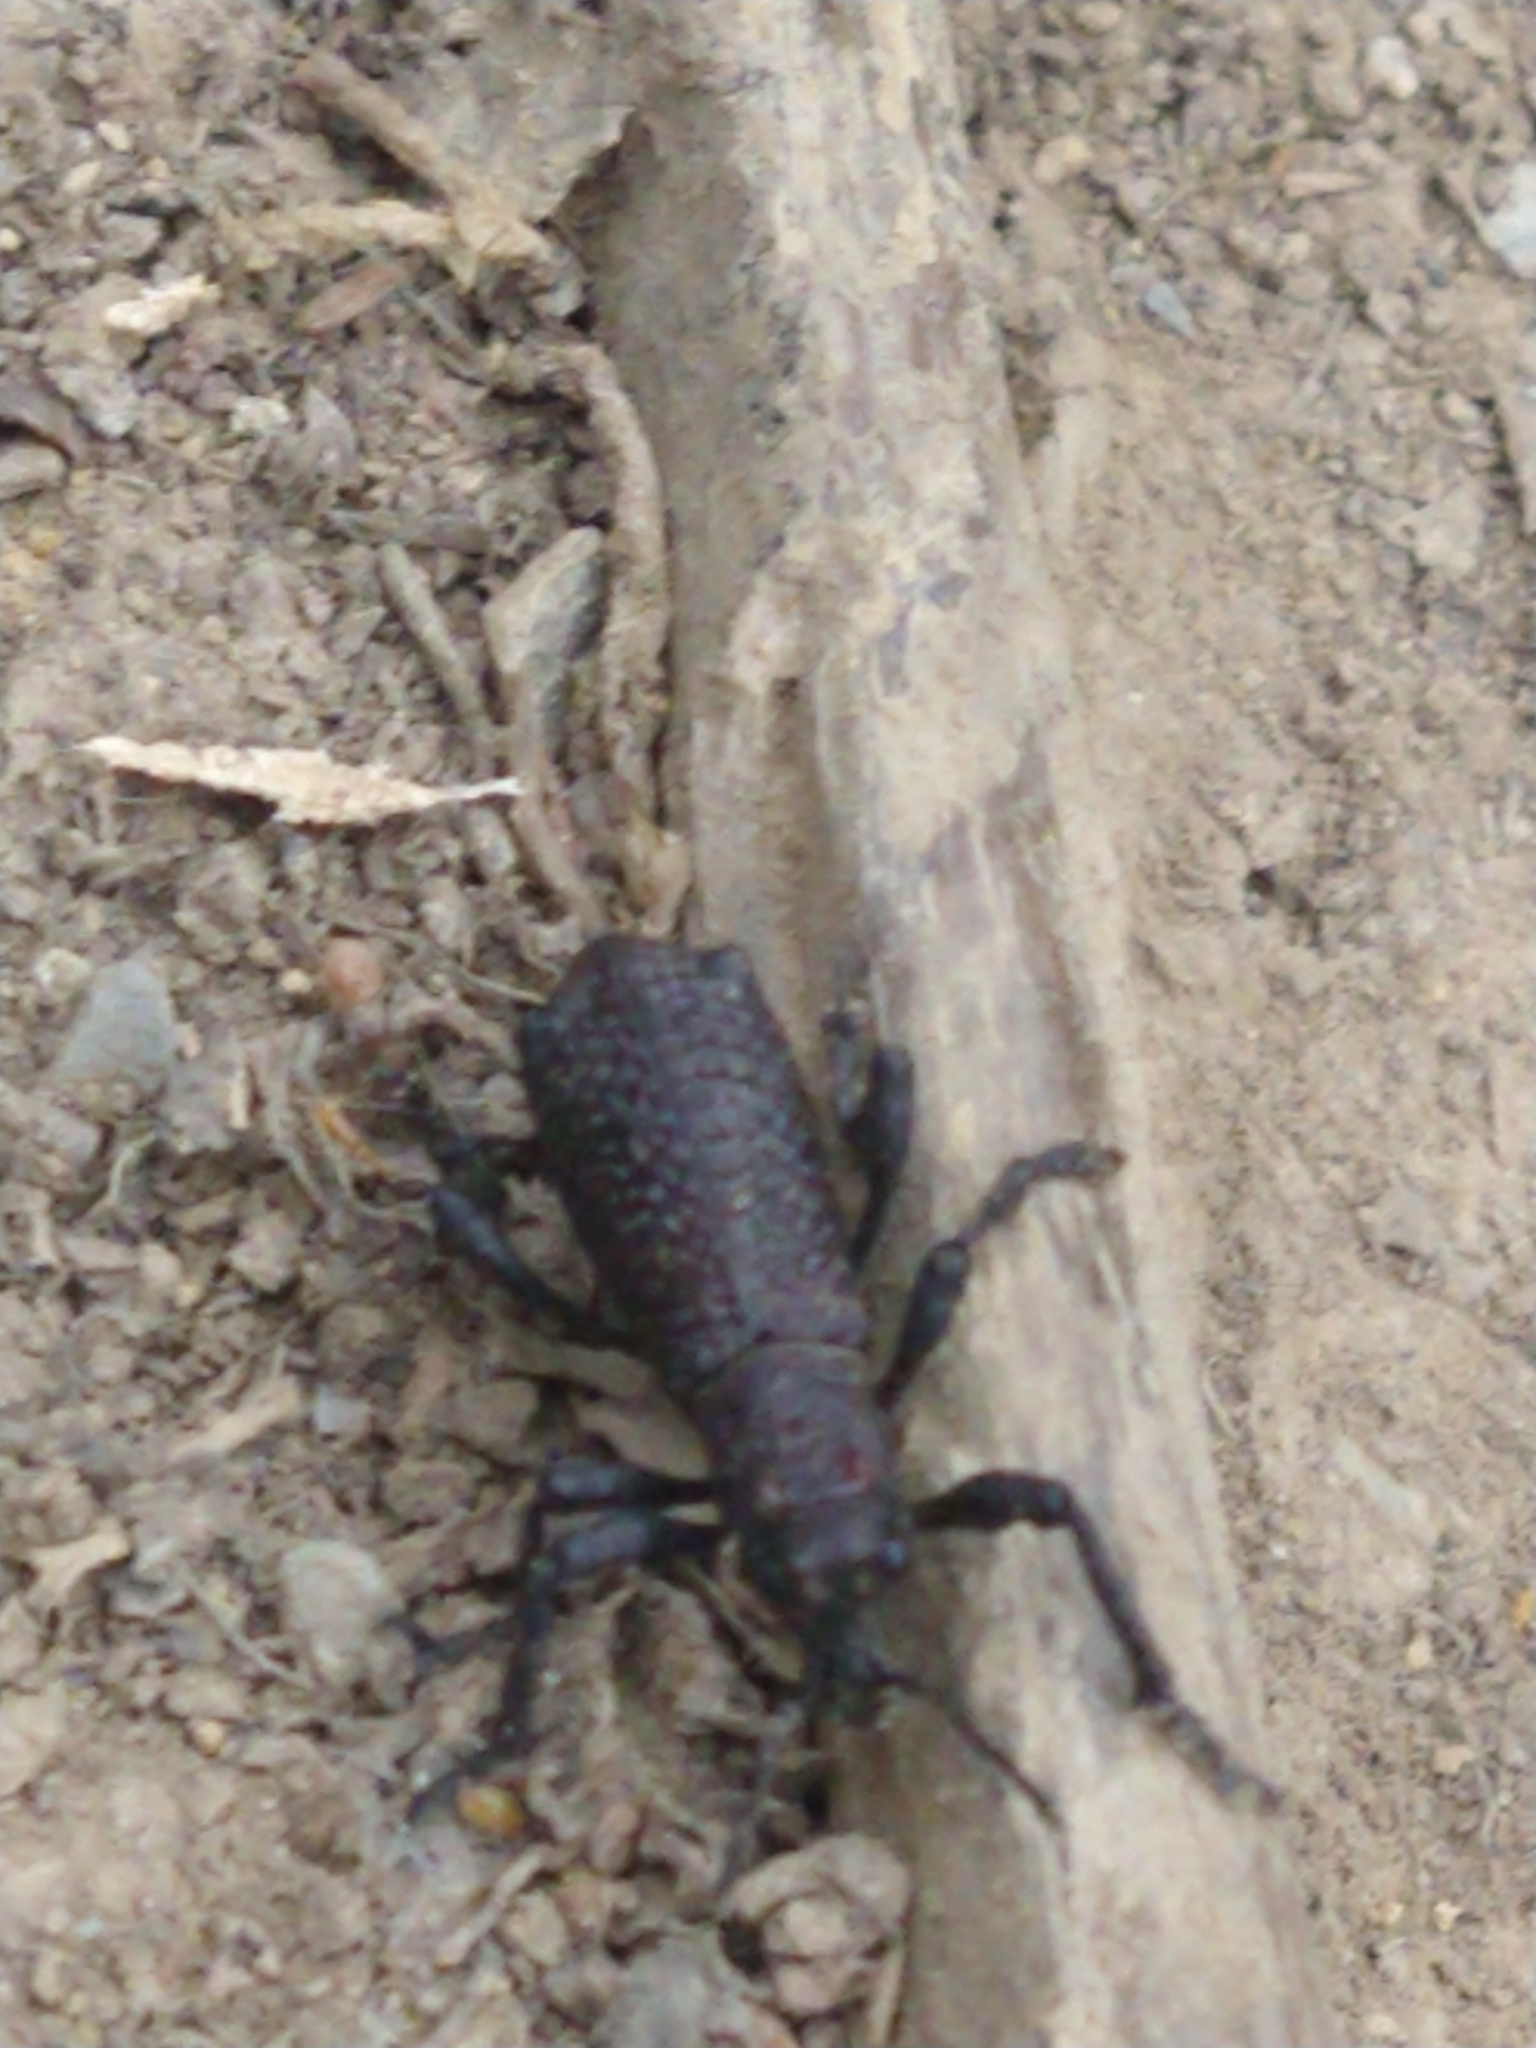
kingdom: Animalia
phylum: Arthropoda
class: Insecta
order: Coleoptera
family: Curculionidae
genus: Aegorhinus
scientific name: Aegorhinus vitulus
